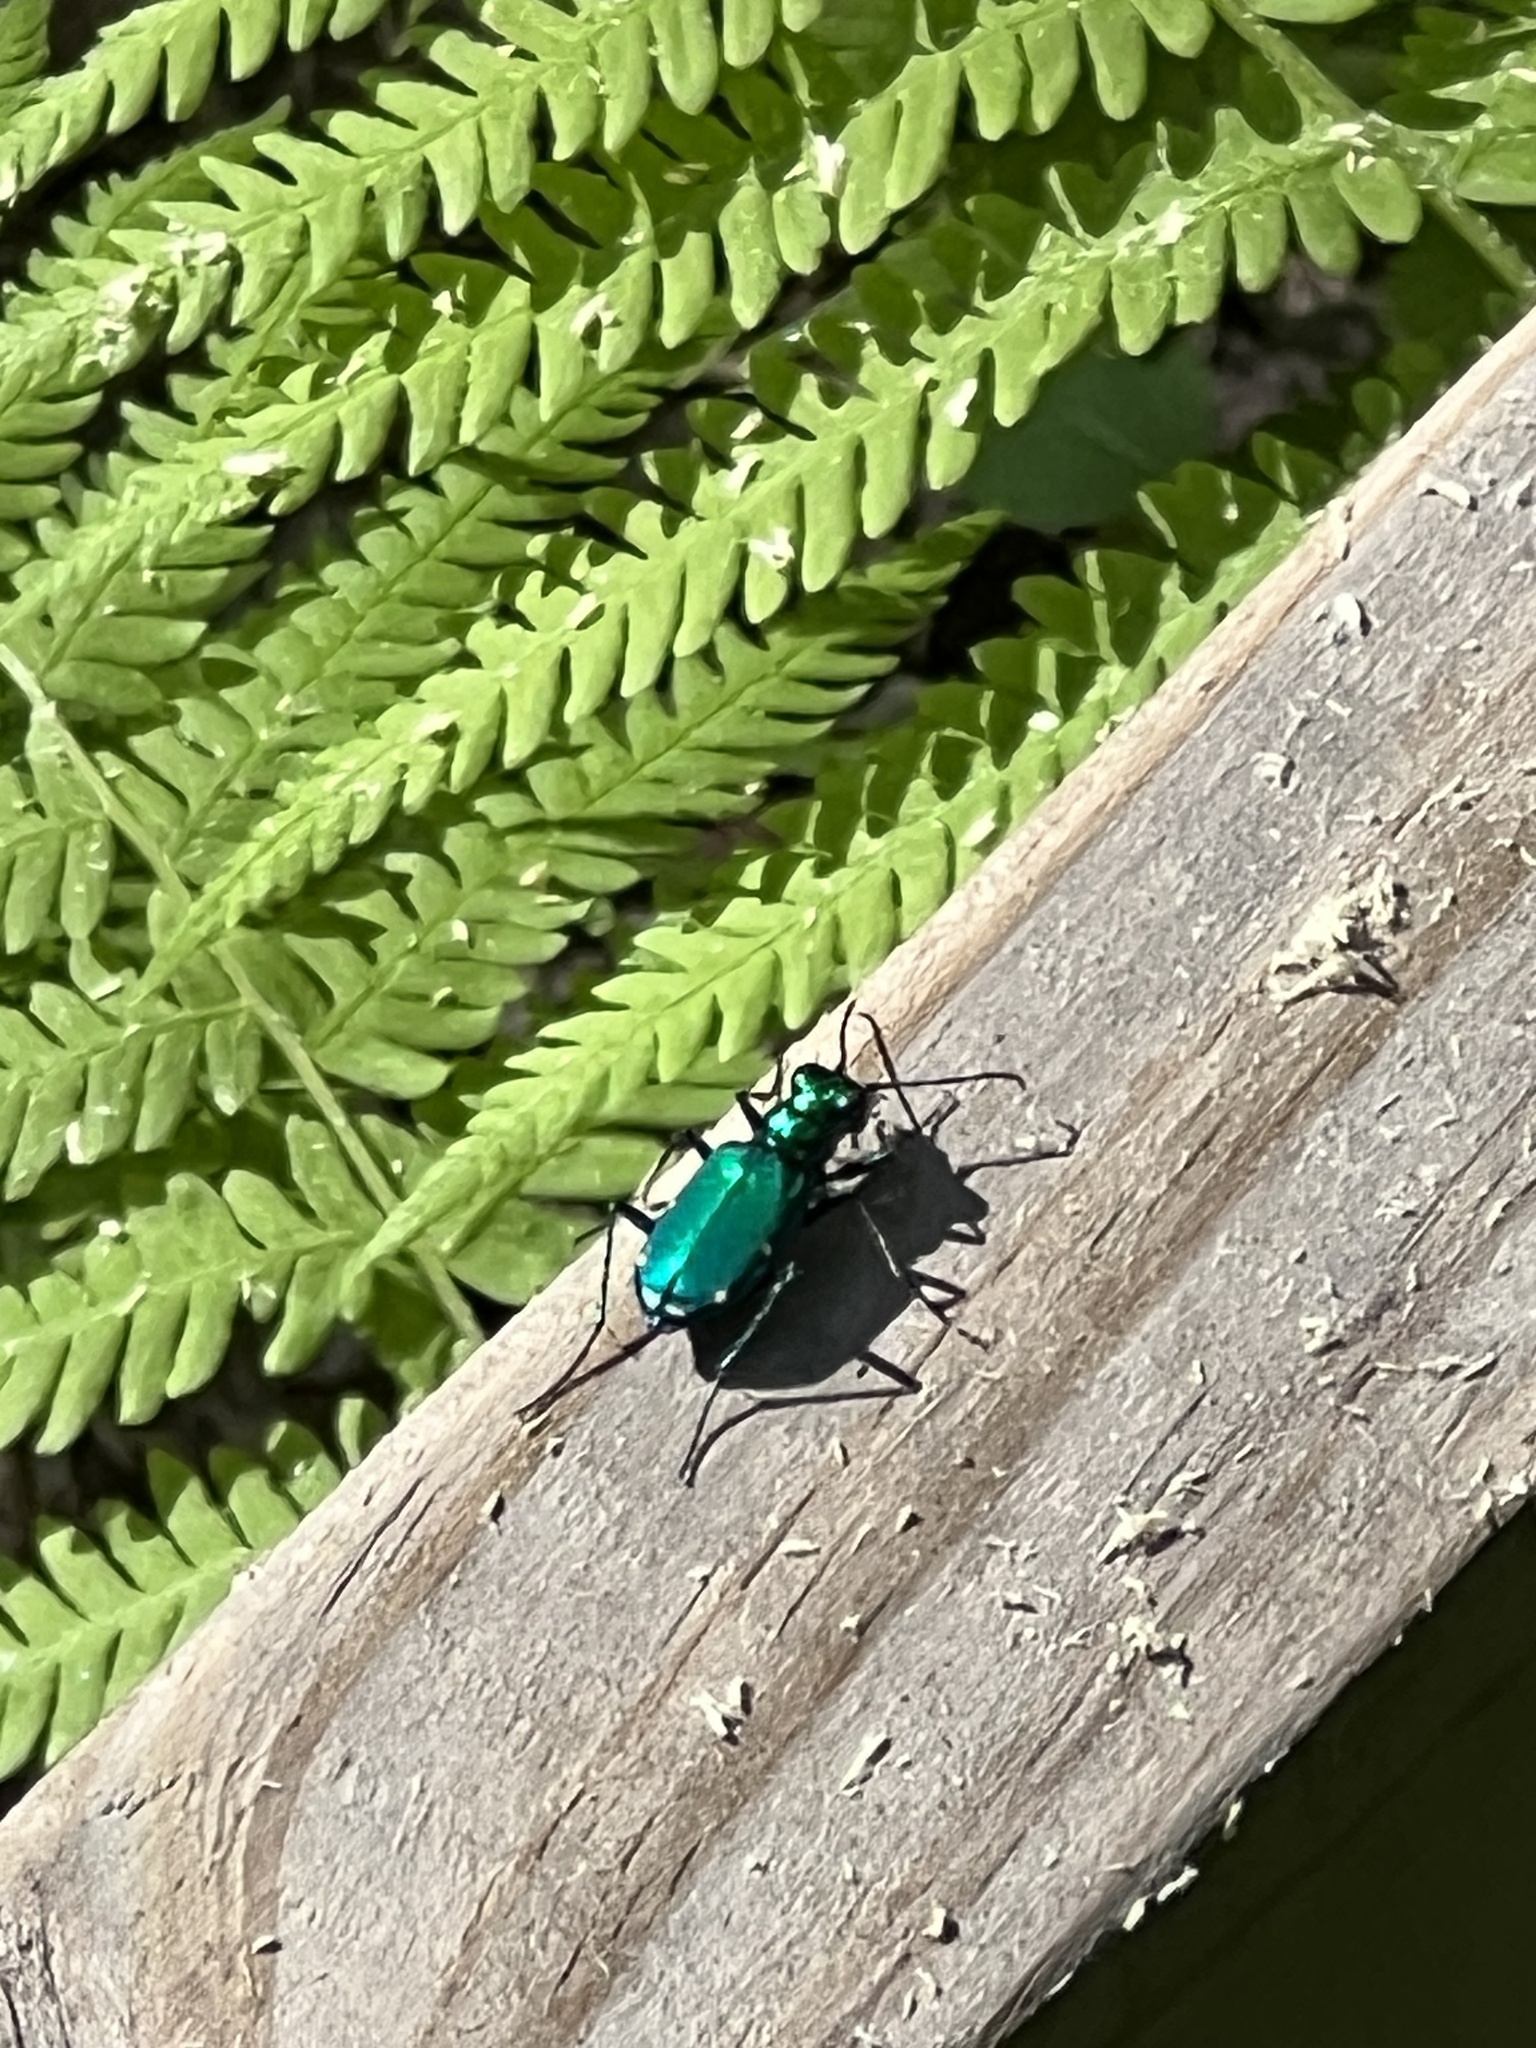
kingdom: Animalia
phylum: Arthropoda
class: Insecta
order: Coleoptera
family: Carabidae
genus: Cicindela
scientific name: Cicindela sexguttata
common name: Six-spotted tiger beetle
